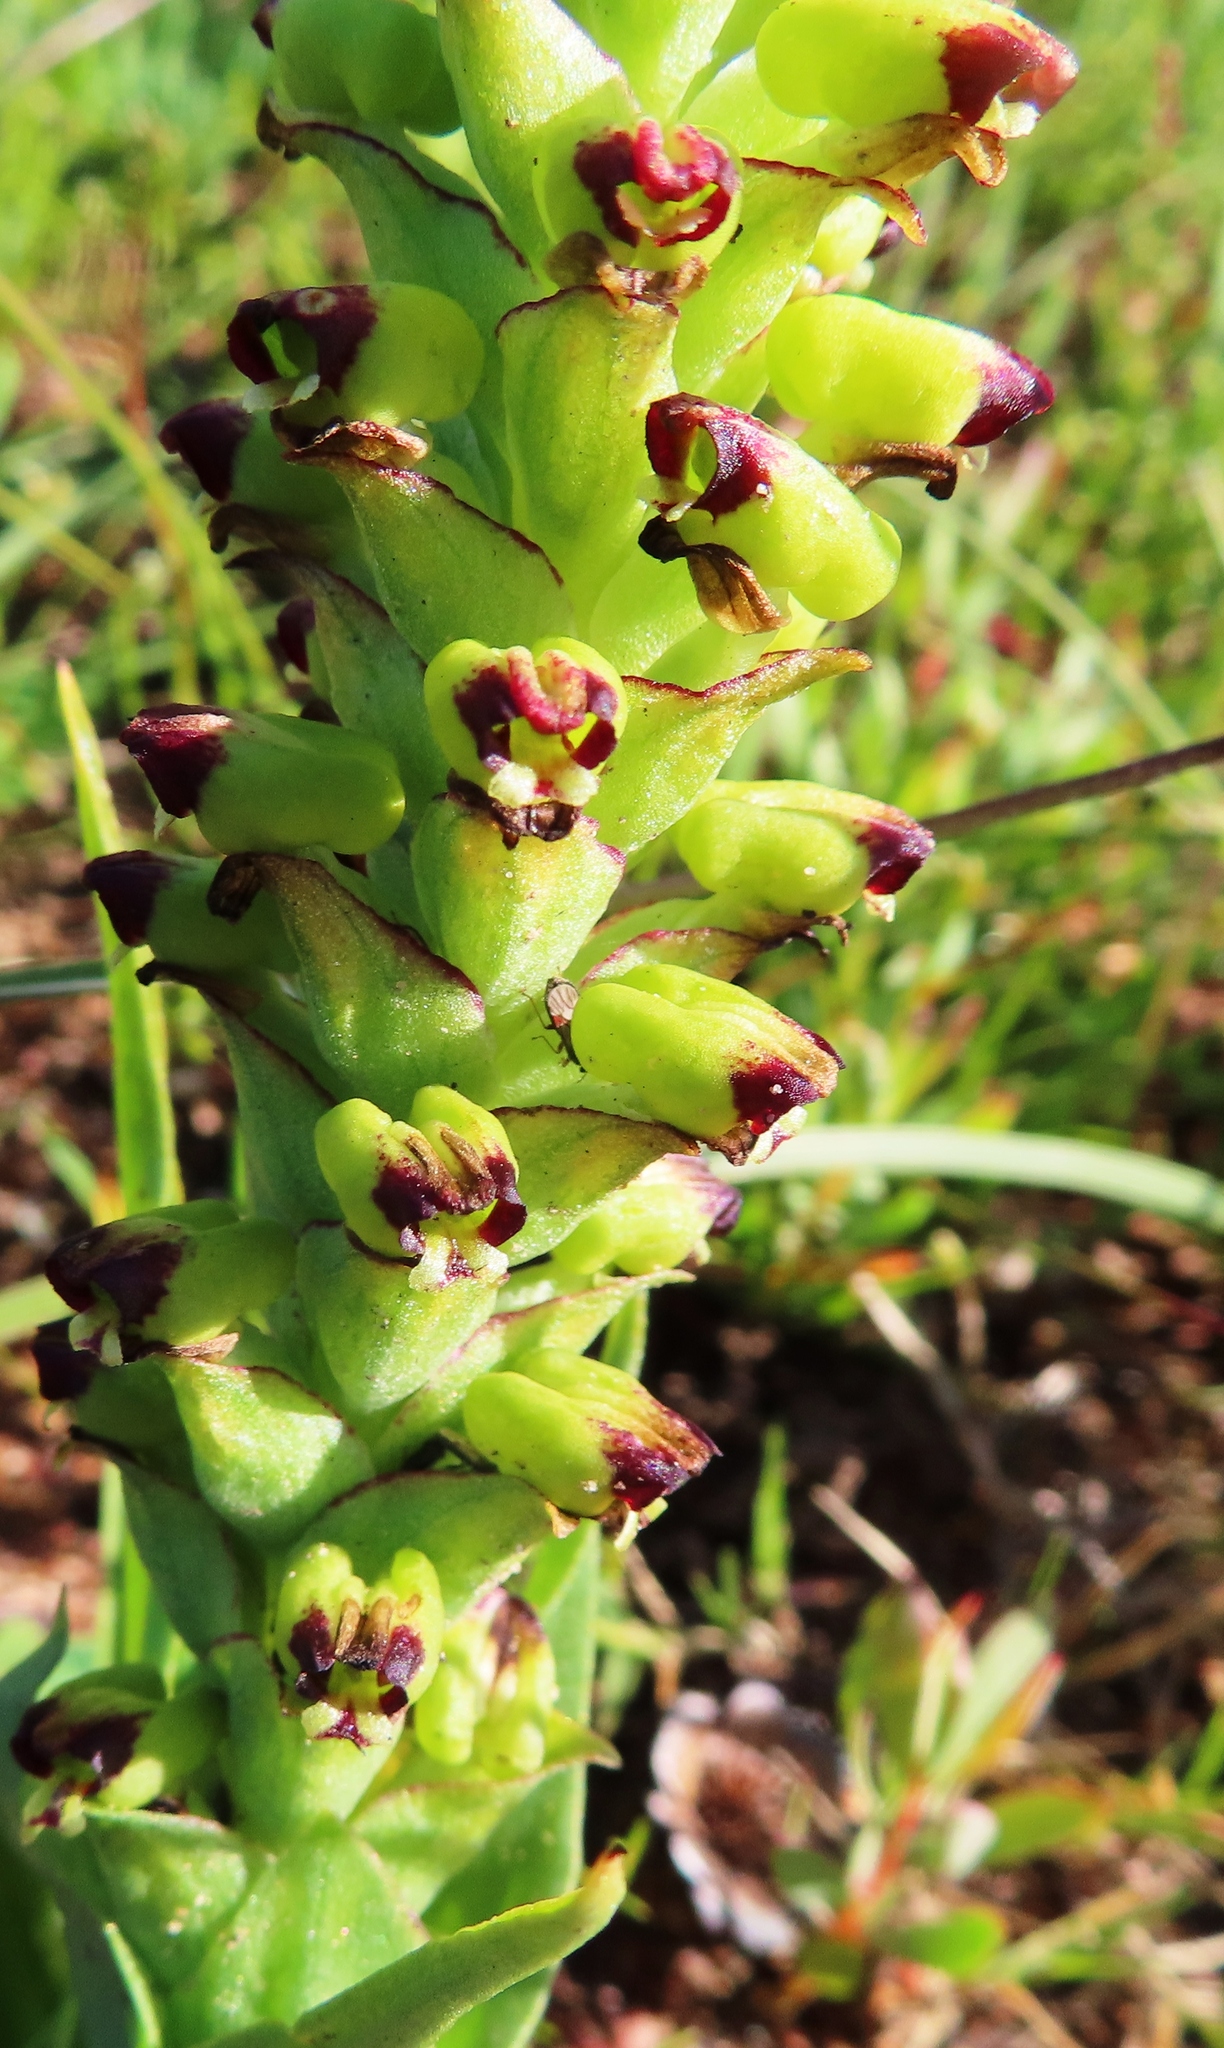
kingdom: Plantae
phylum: Tracheophyta
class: Liliopsida
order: Asparagales
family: Orchidaceae
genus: Corycium
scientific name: Corycium orobanchoides
